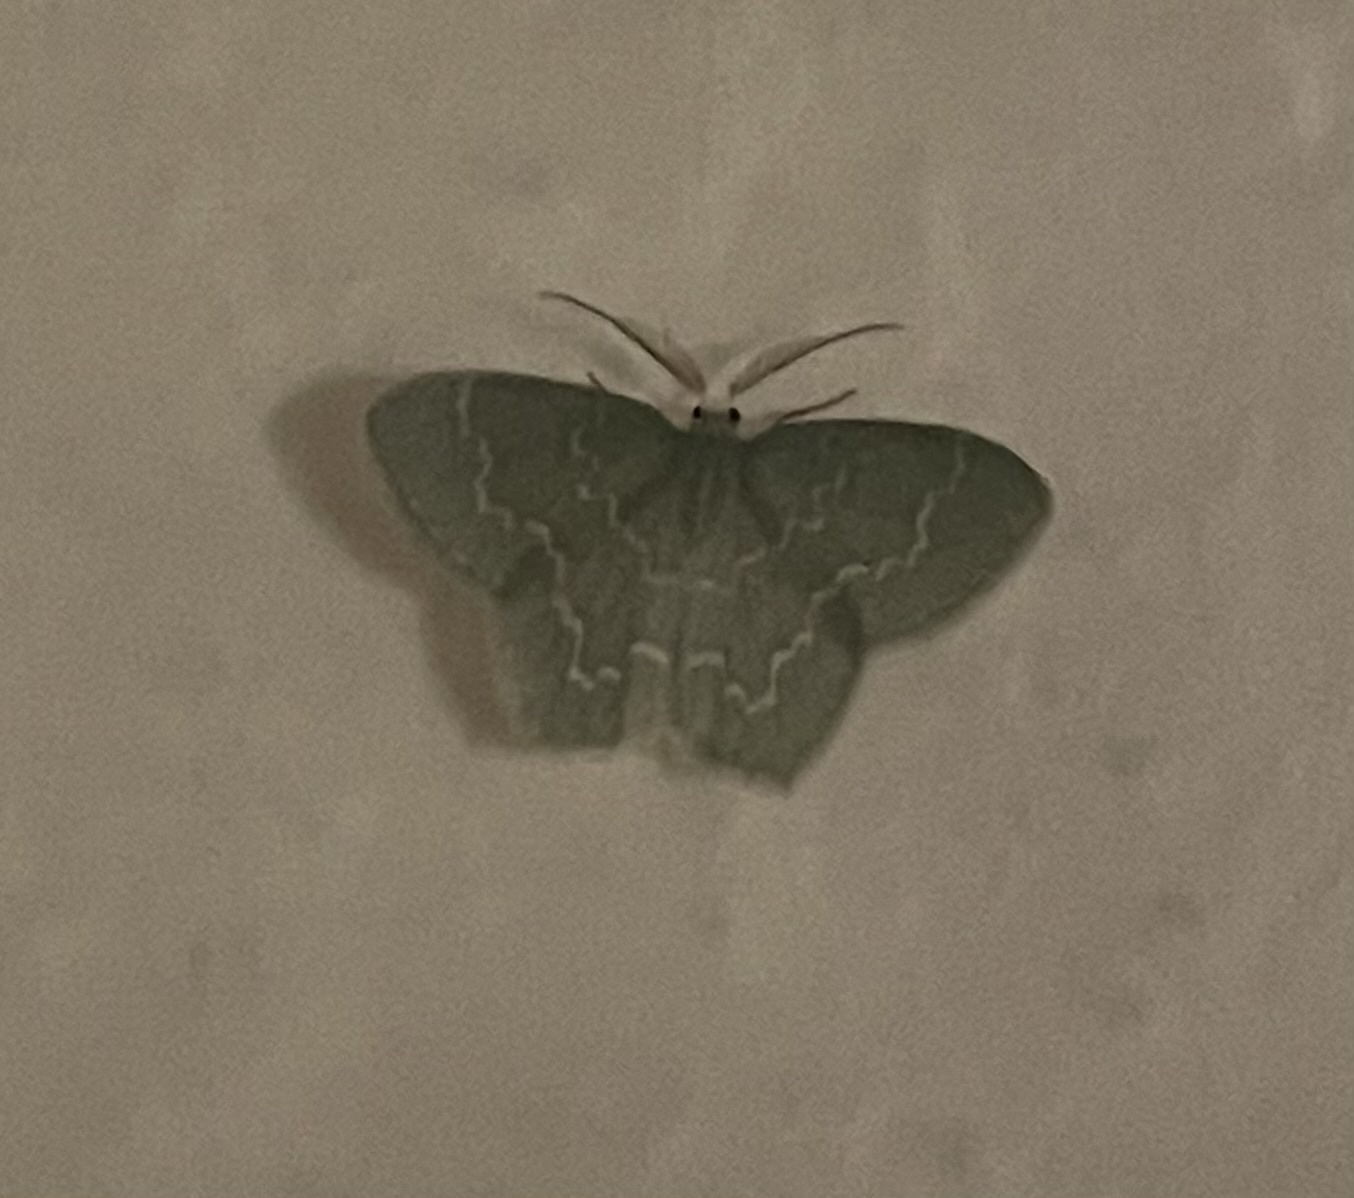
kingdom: Animalia
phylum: Arthropoda
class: Insecta
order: Lepidoptera
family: Geometridae
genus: Jodis
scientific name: Jodis putata
